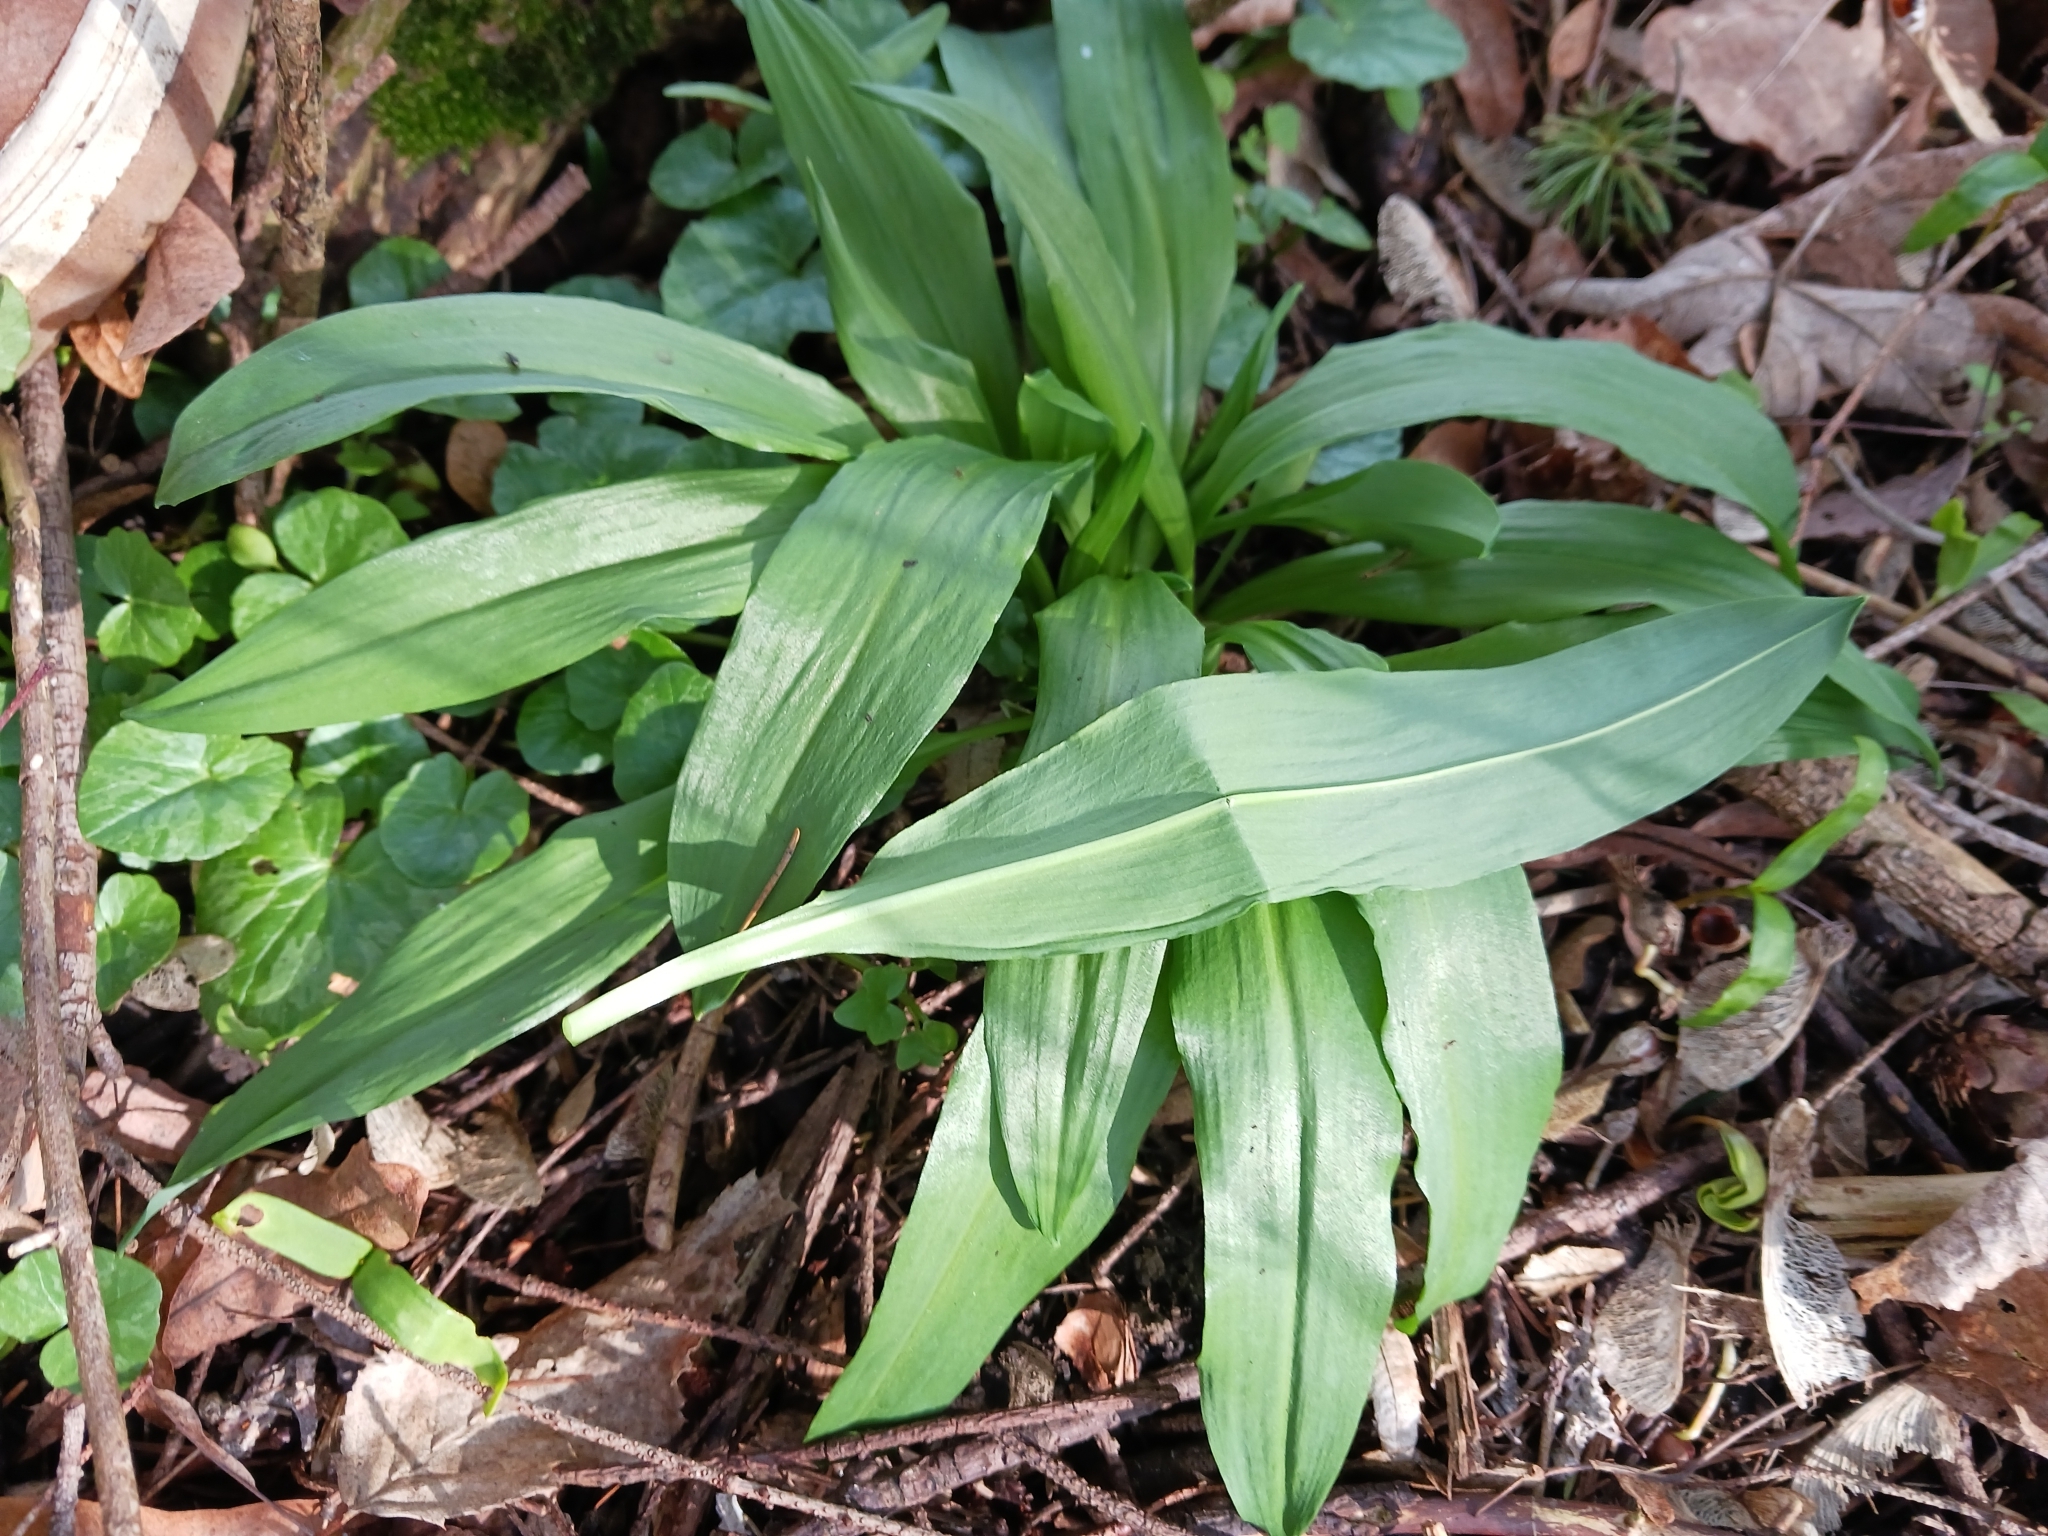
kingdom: Plantae
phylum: Tracheophyta
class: Liliopsida
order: Asparagales
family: Amaryllidaceae
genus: Allium
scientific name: Allium ursinum
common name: Ramsons
